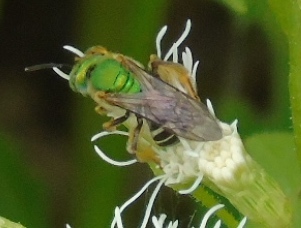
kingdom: Animalia
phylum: Arthropoda
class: Insecta
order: Hymenoptera
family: Halictidae
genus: Agapostemon
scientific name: Agapostemon
